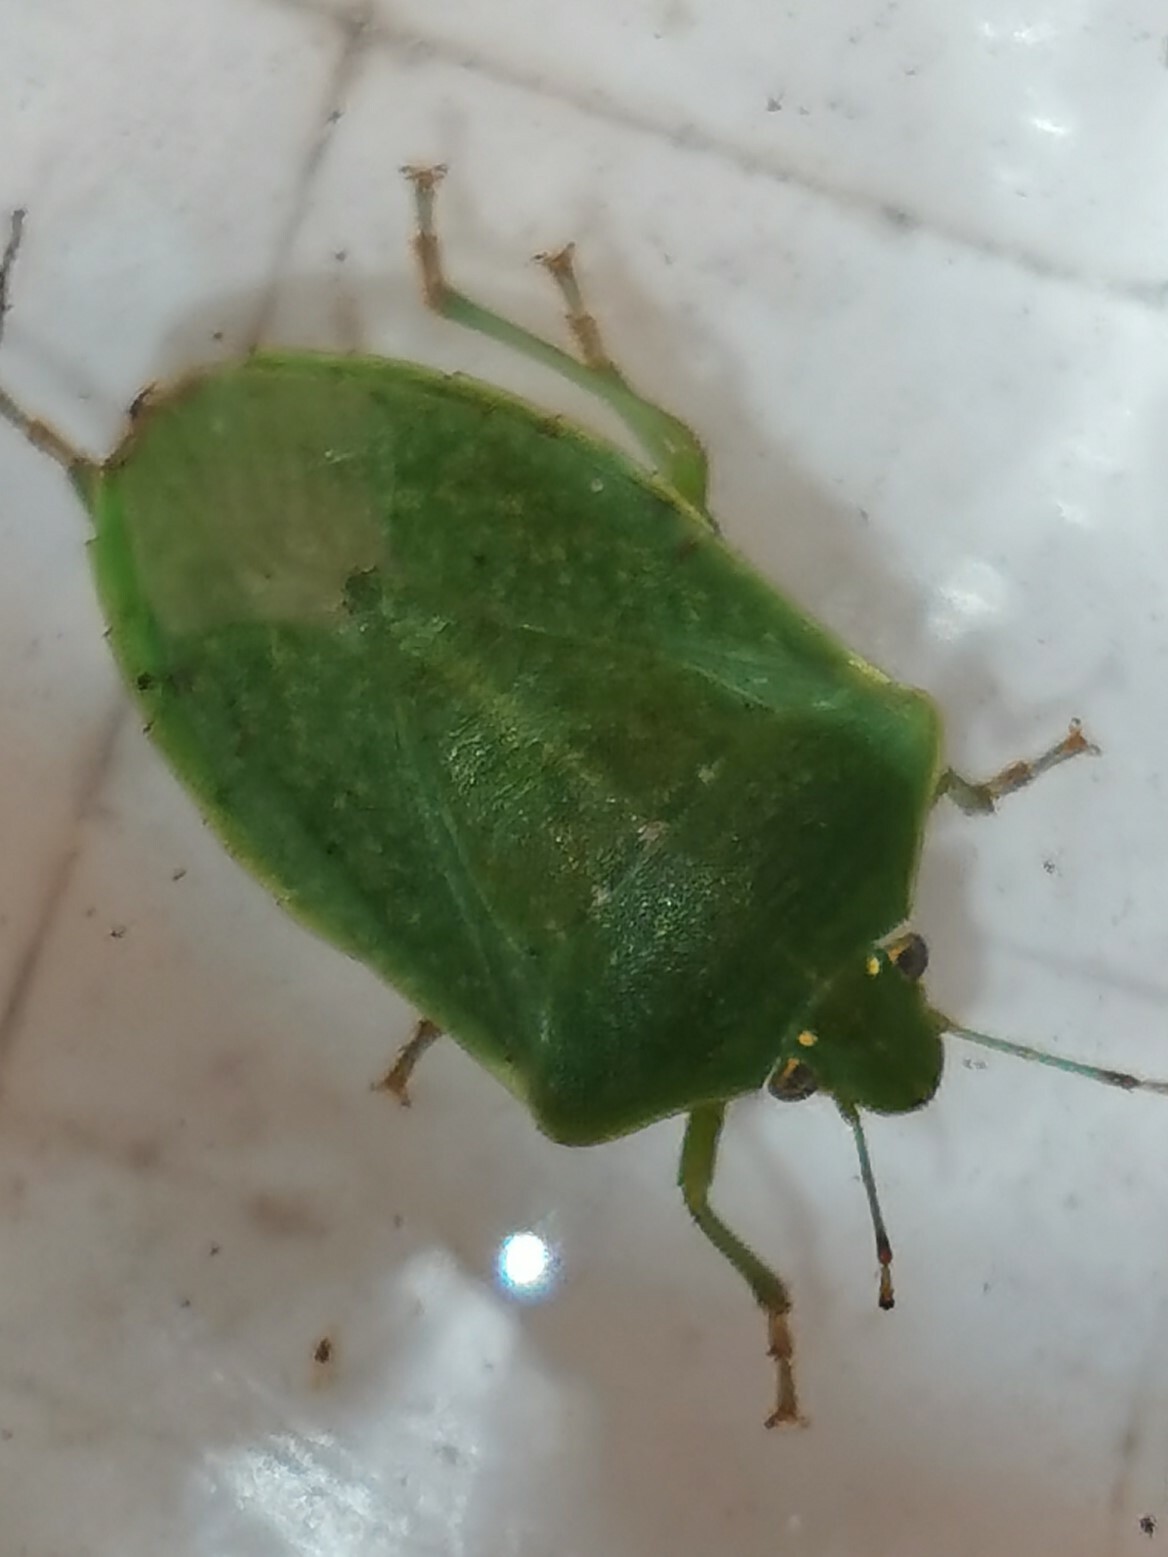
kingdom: Animalia
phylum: Arthropoda
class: Insecta
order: Hemiptera
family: Pentatomidae
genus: Nezara
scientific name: Nezara viridula
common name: Southern green stink bug
